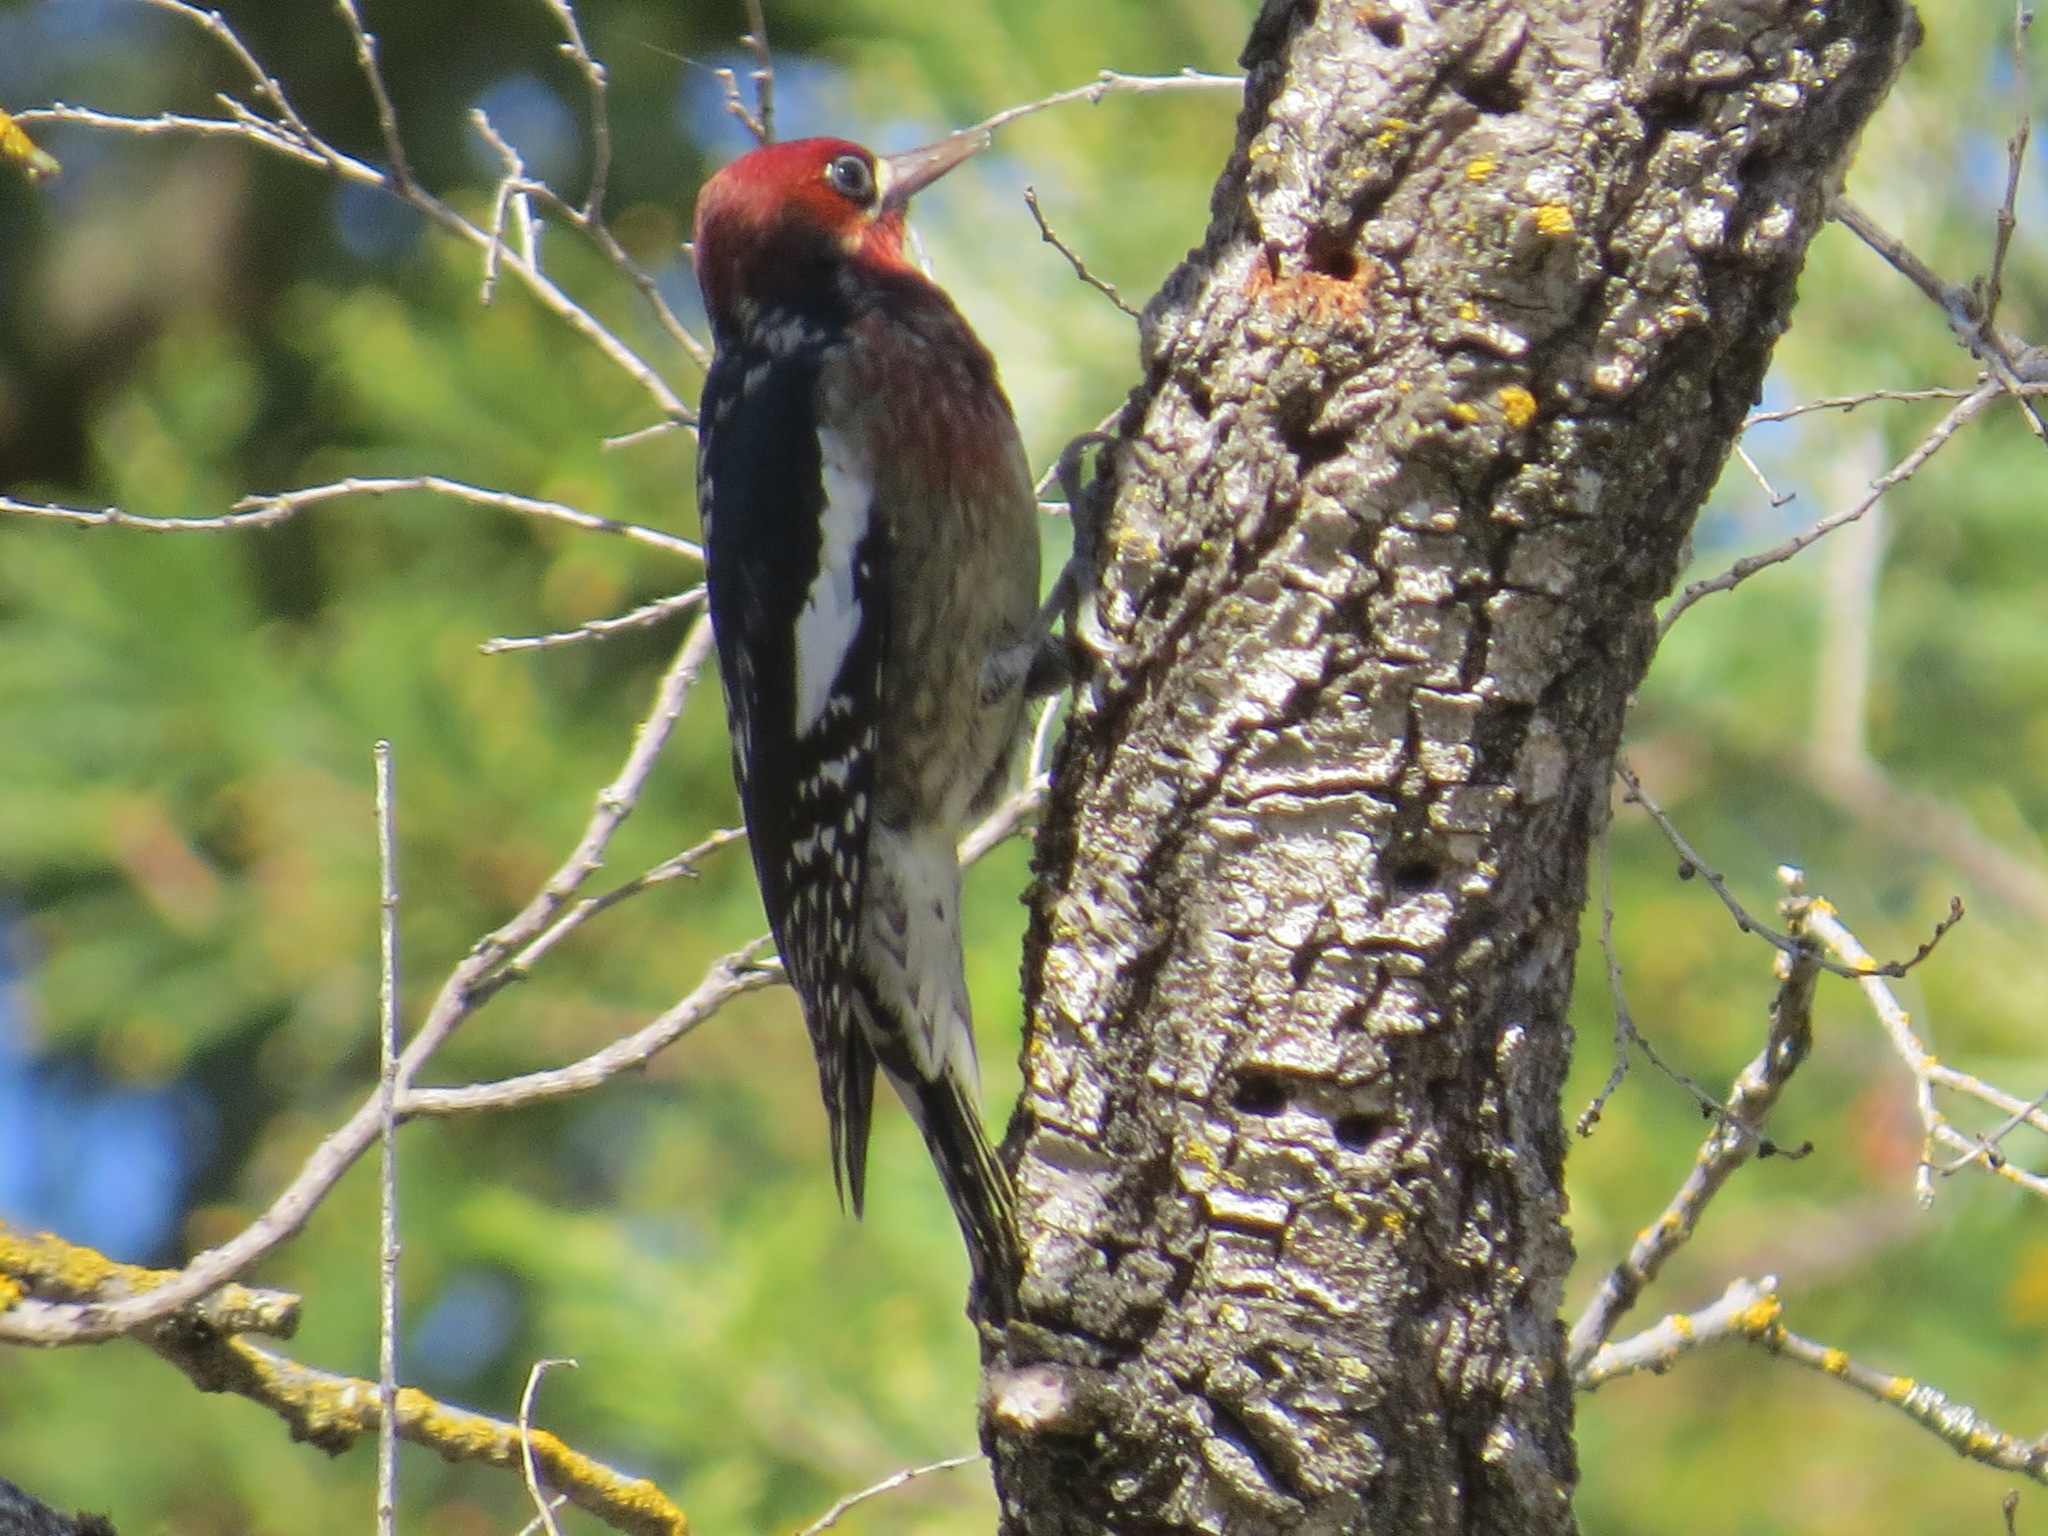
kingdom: Animalia
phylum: Chordata
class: Aves
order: Piciformes
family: Picidae
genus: Sphyrapicus
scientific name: Sphyrapicus ruber
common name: Red-breasted sapsucker
